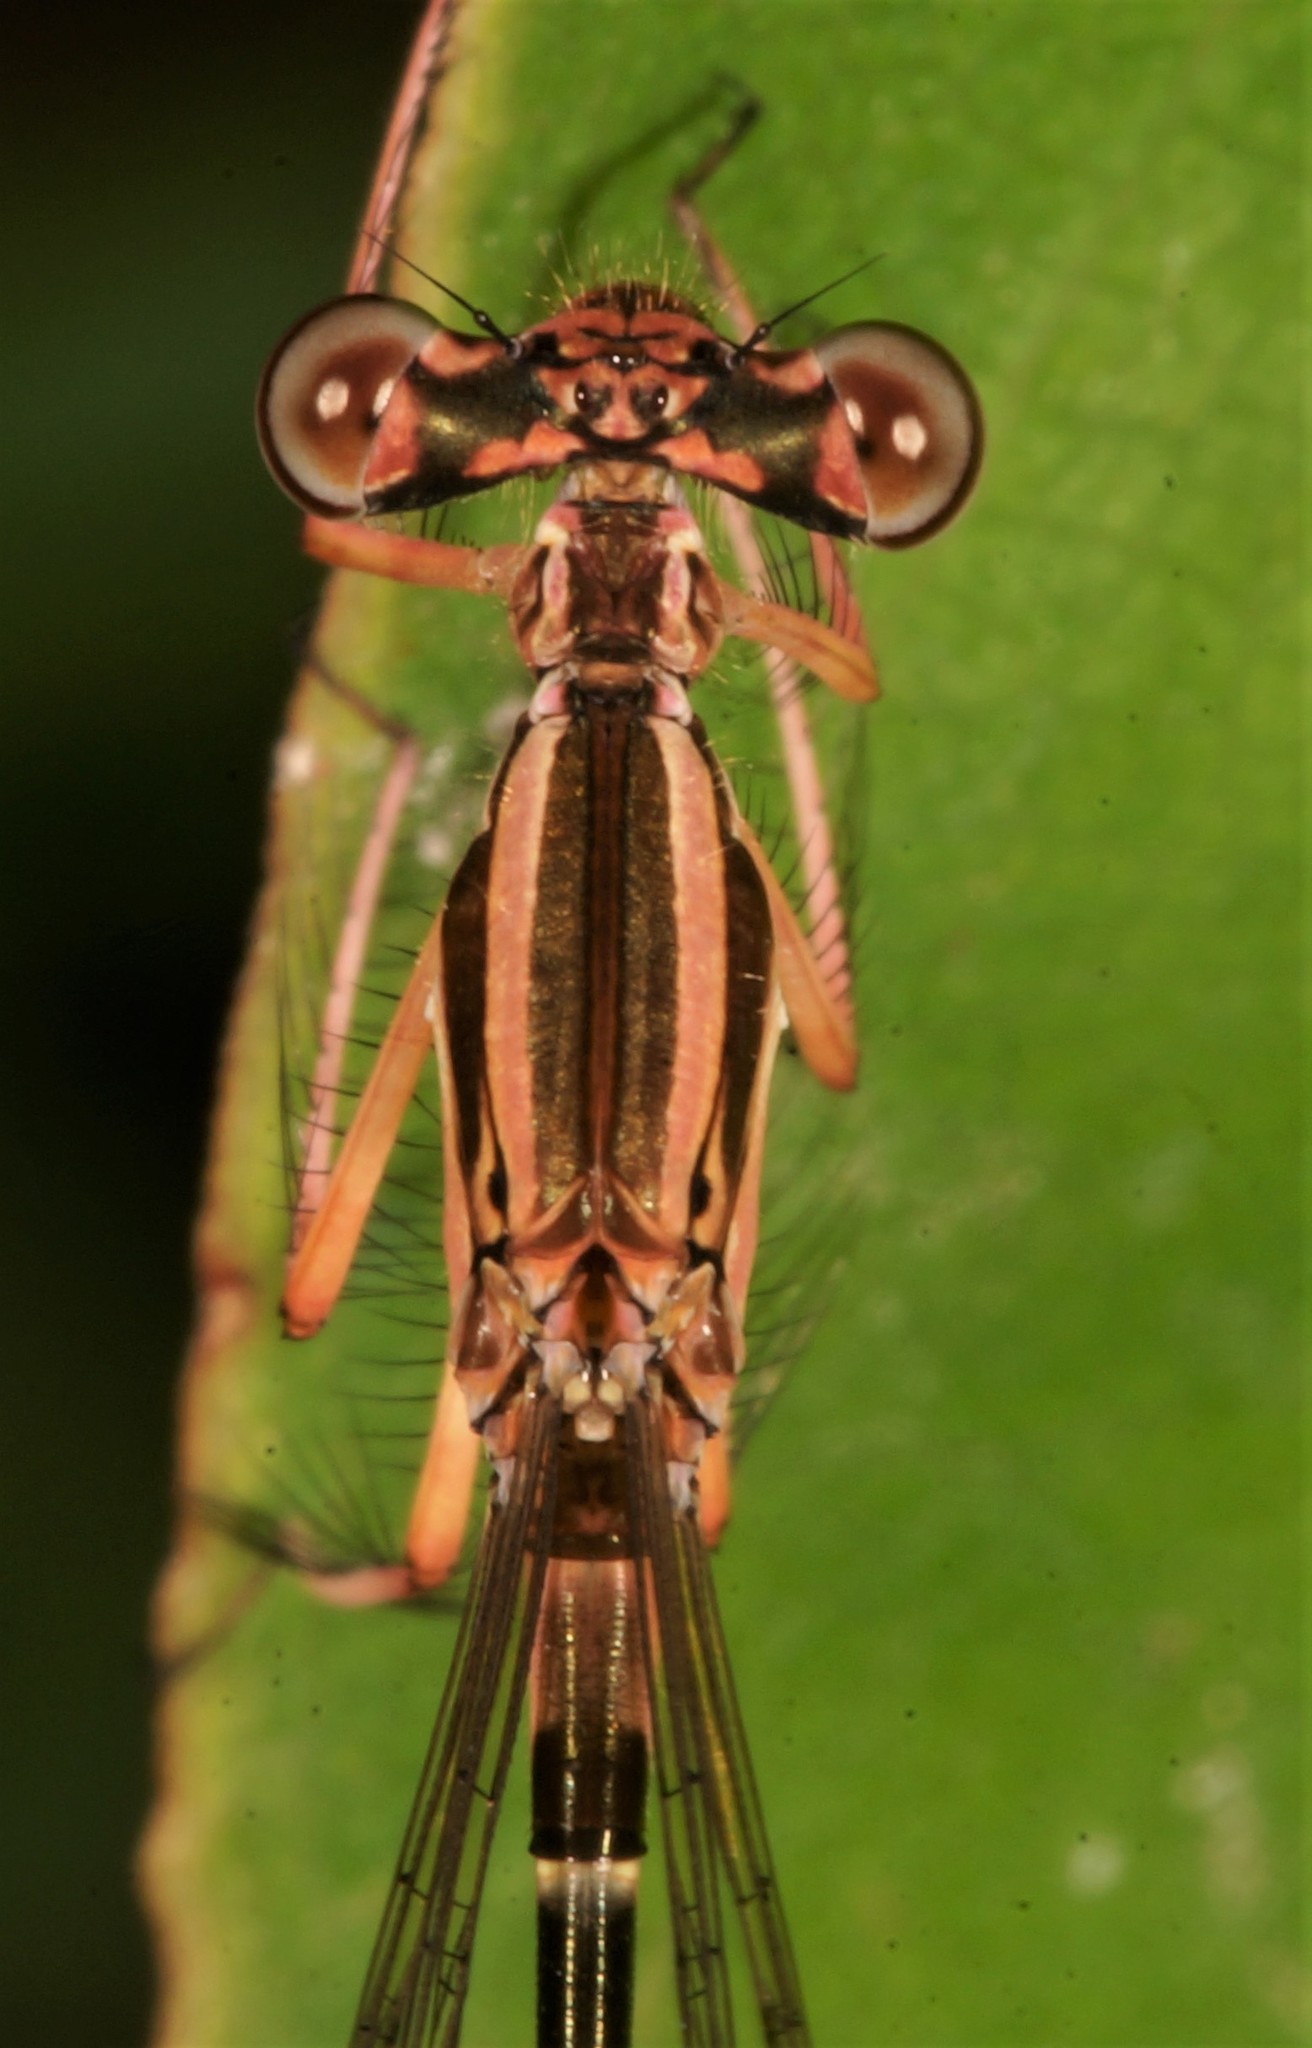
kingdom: Animalia
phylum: Arthropoda
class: Insecta
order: Odonata
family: Platycnemididae
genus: Pseudocopera
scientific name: Pseudocopera ciliata
